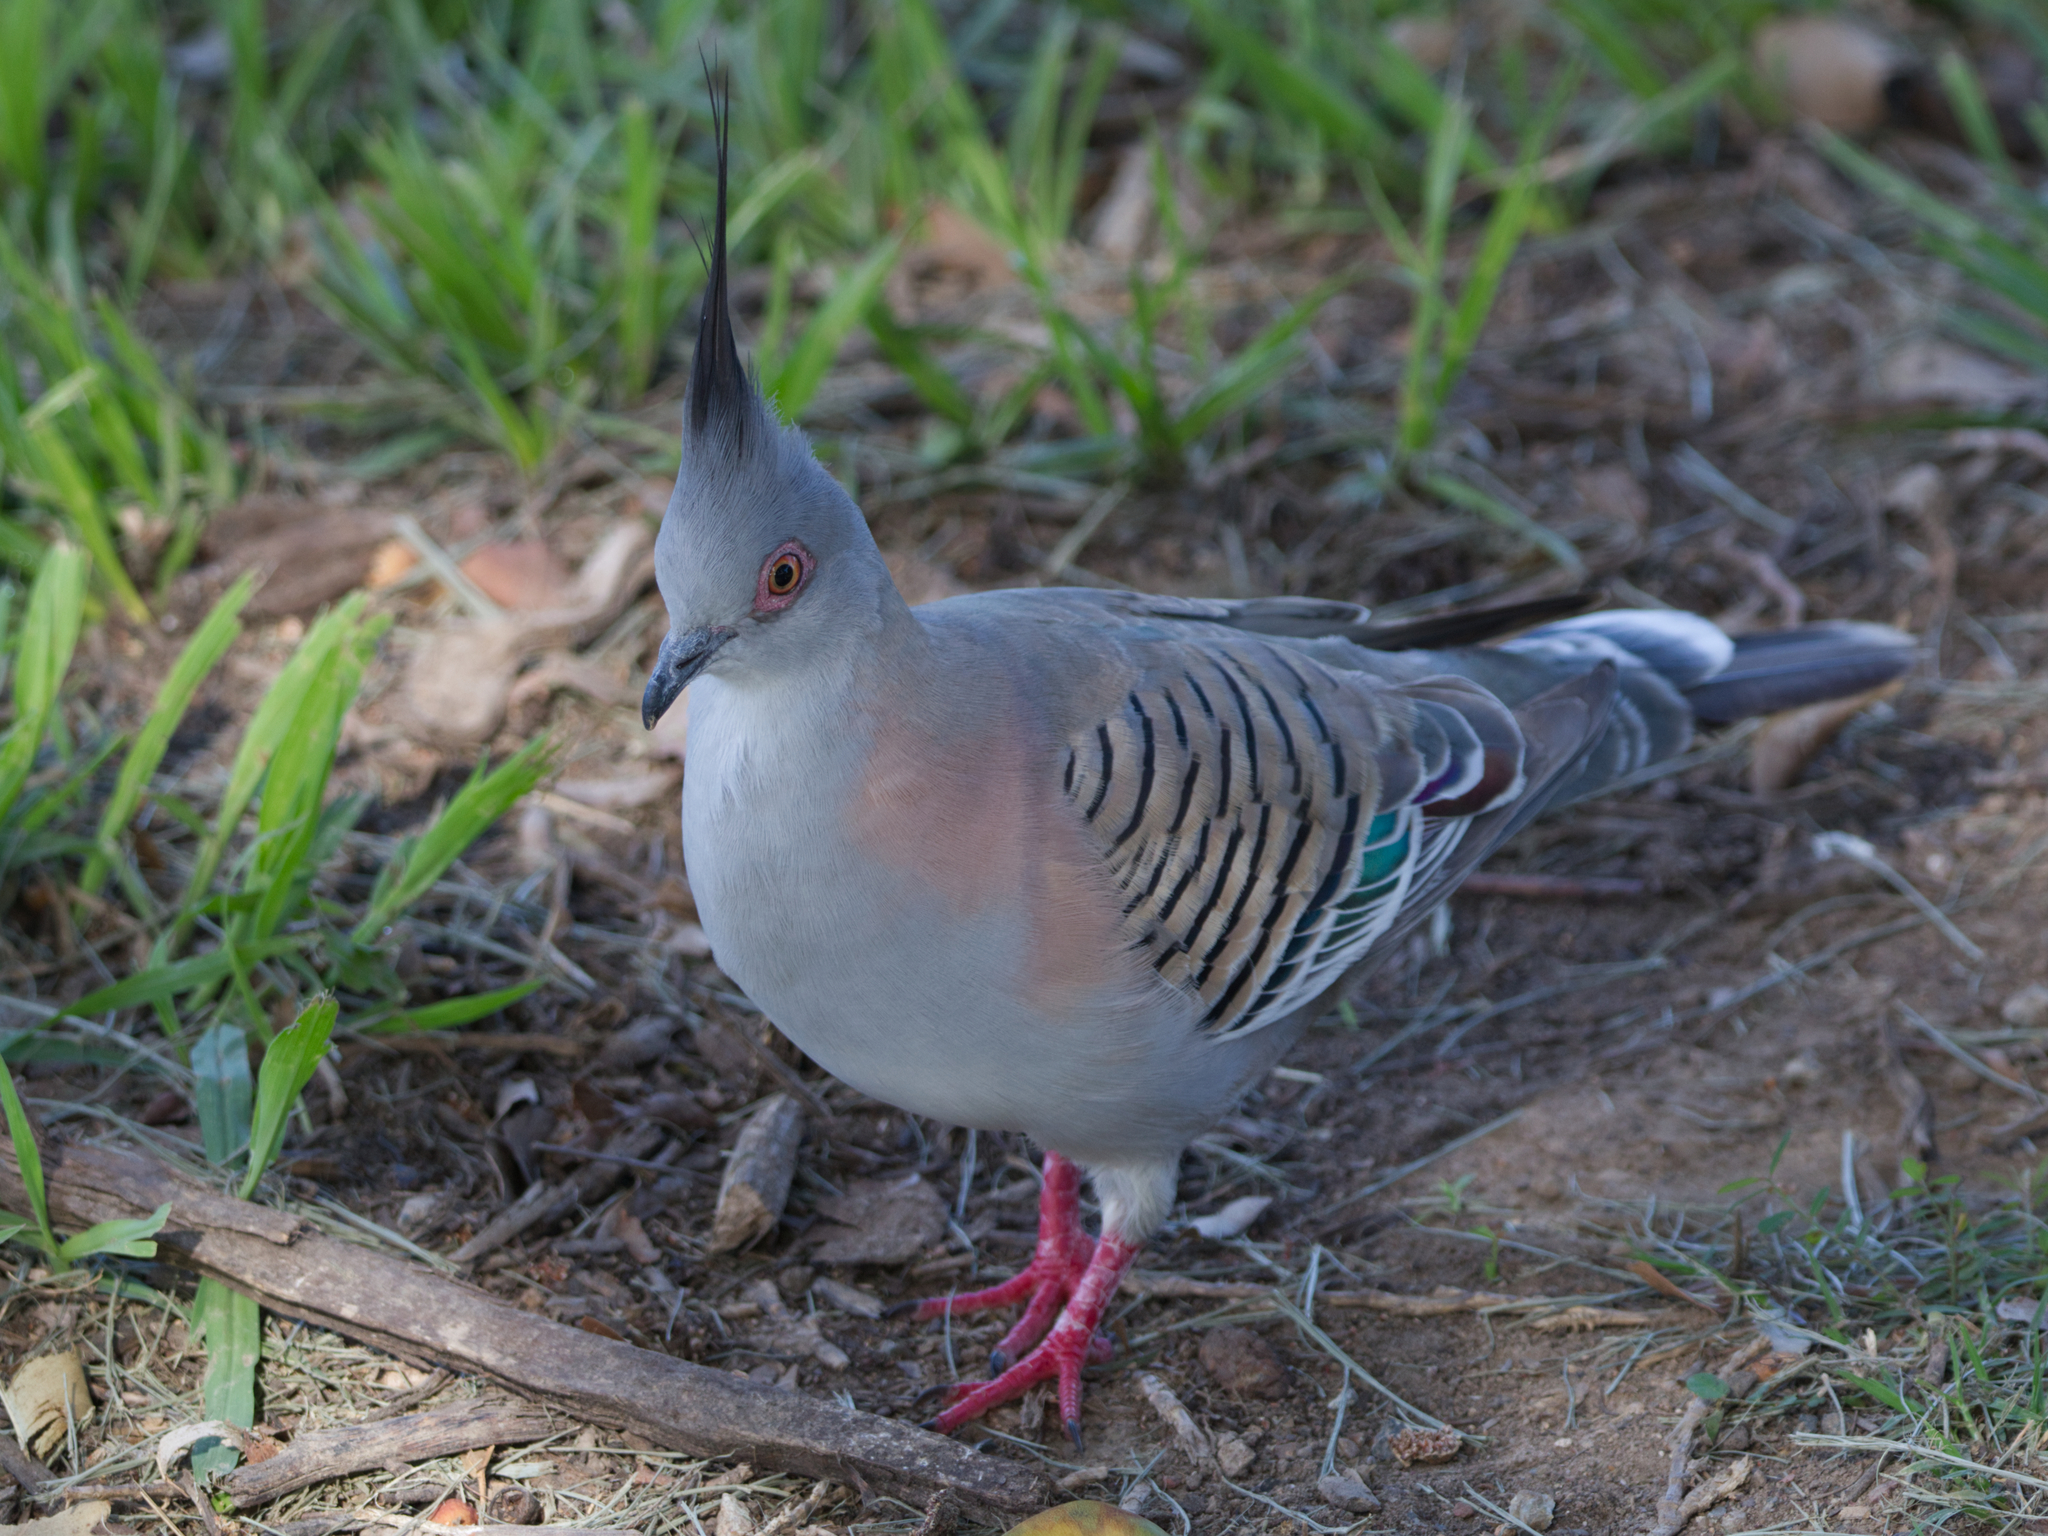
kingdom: Animalia
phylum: Chordata
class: Aves
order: Columbiformes
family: Columbidae
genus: Ocyphaps
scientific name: Ocyphaps lophotes
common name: Crested pigeon
